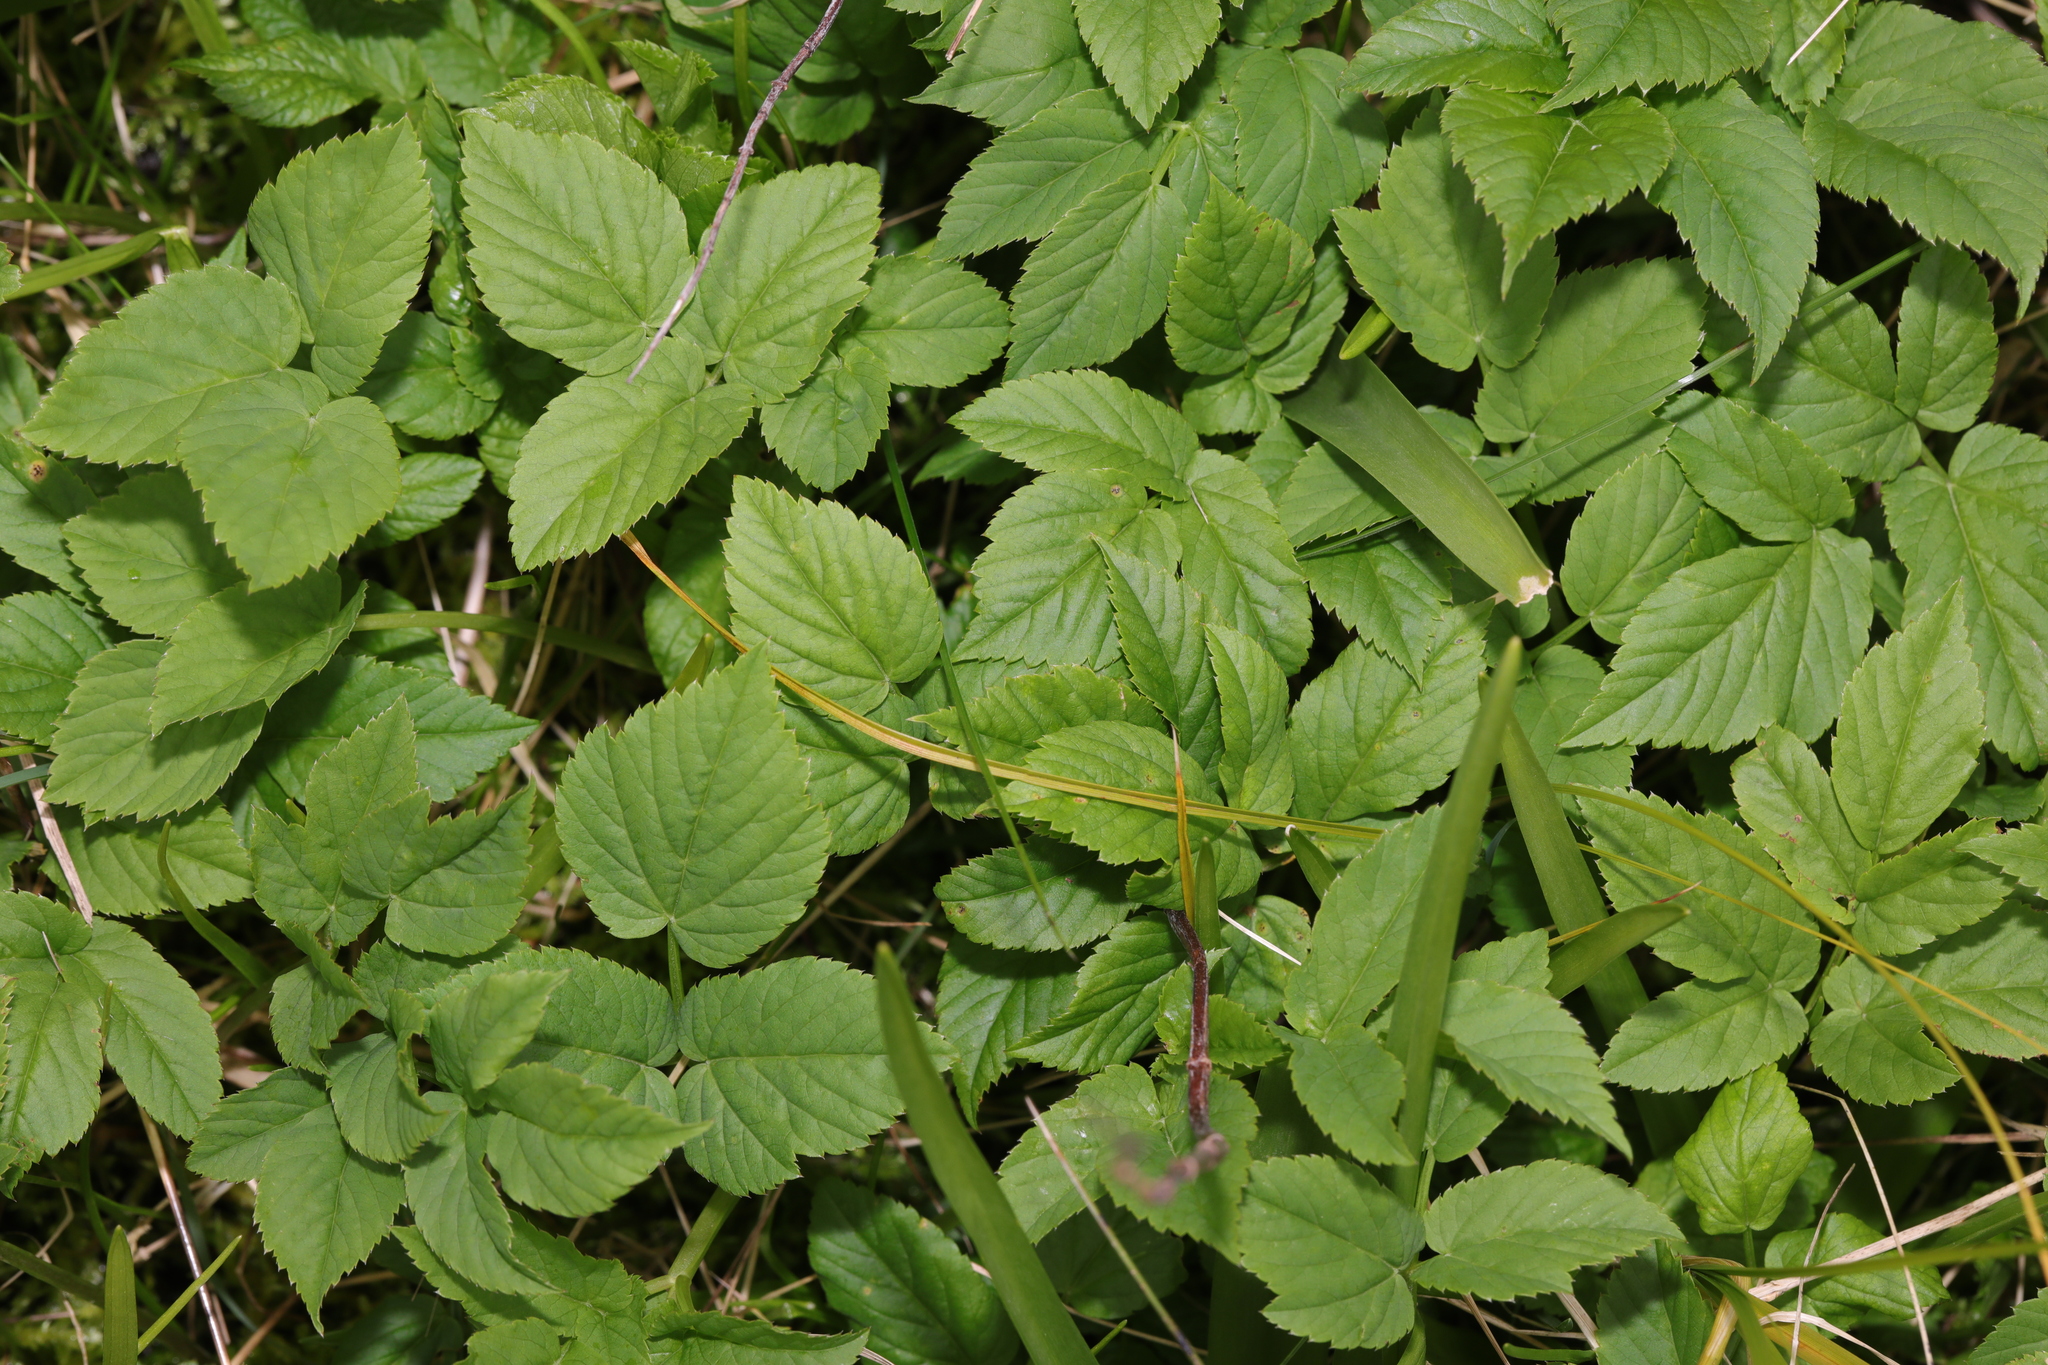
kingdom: Plantae
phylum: Tracheophyta
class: Magnoliopsida
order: Apiales
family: Apiaceae
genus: Aegopodium
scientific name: Aegopodium podagraria
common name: Ground-elder
